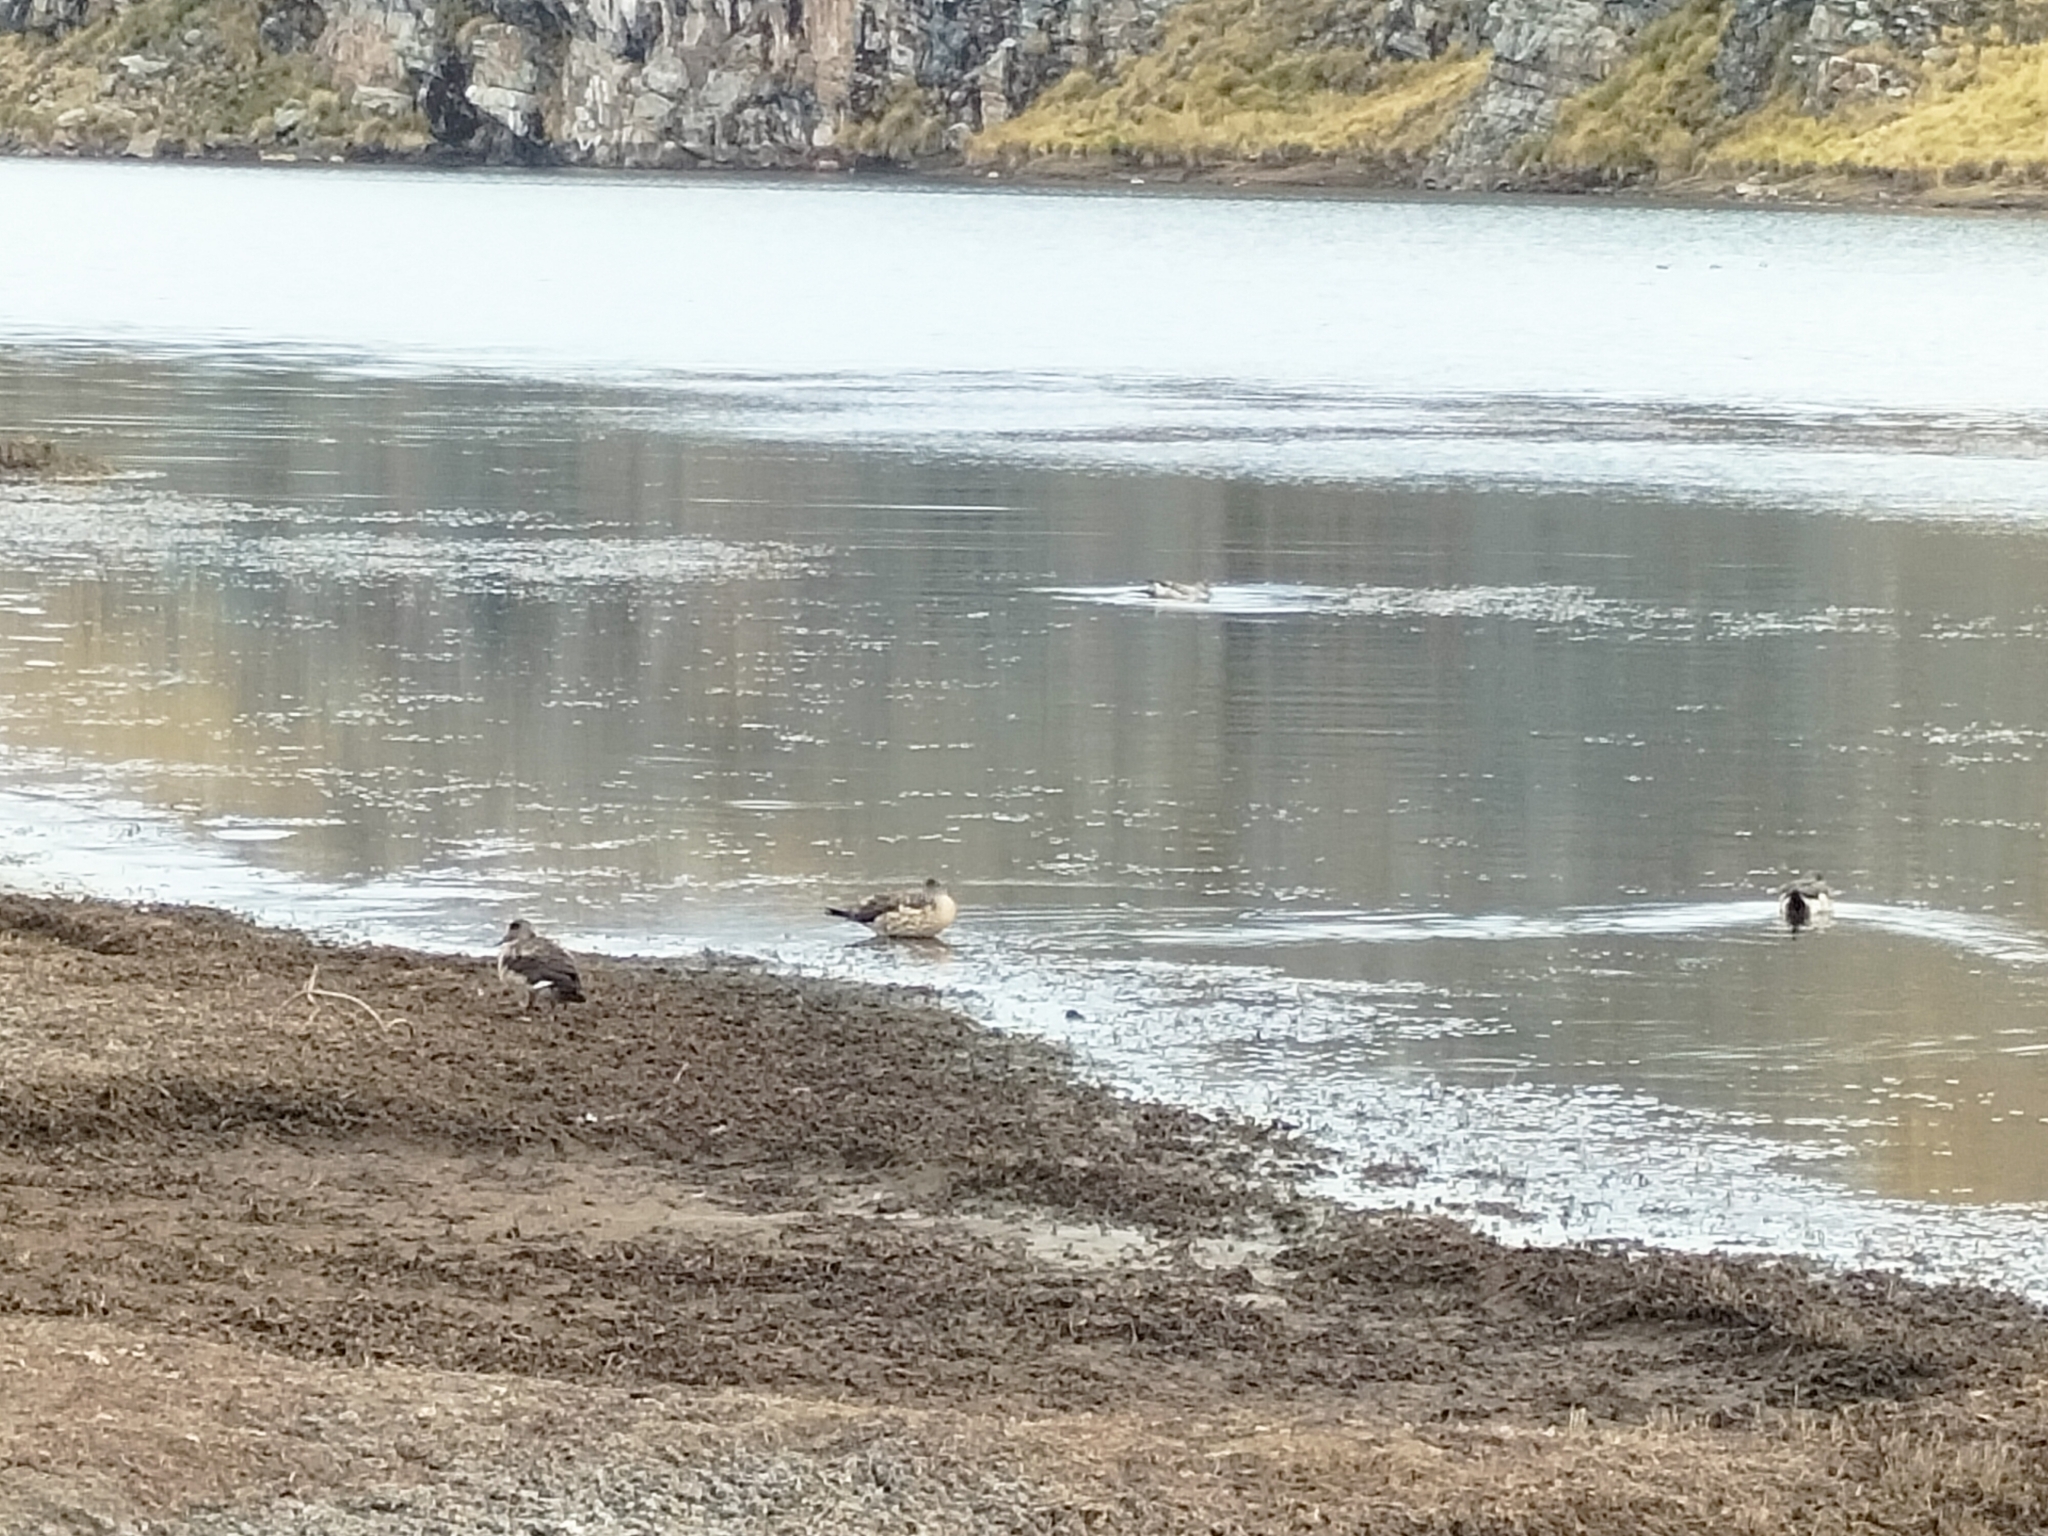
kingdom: Animalia
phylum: Chordata
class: Aves
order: Anseriformes
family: Anatidae
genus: Lophonetta
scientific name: Lophonetta specularioides
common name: Crested duck
